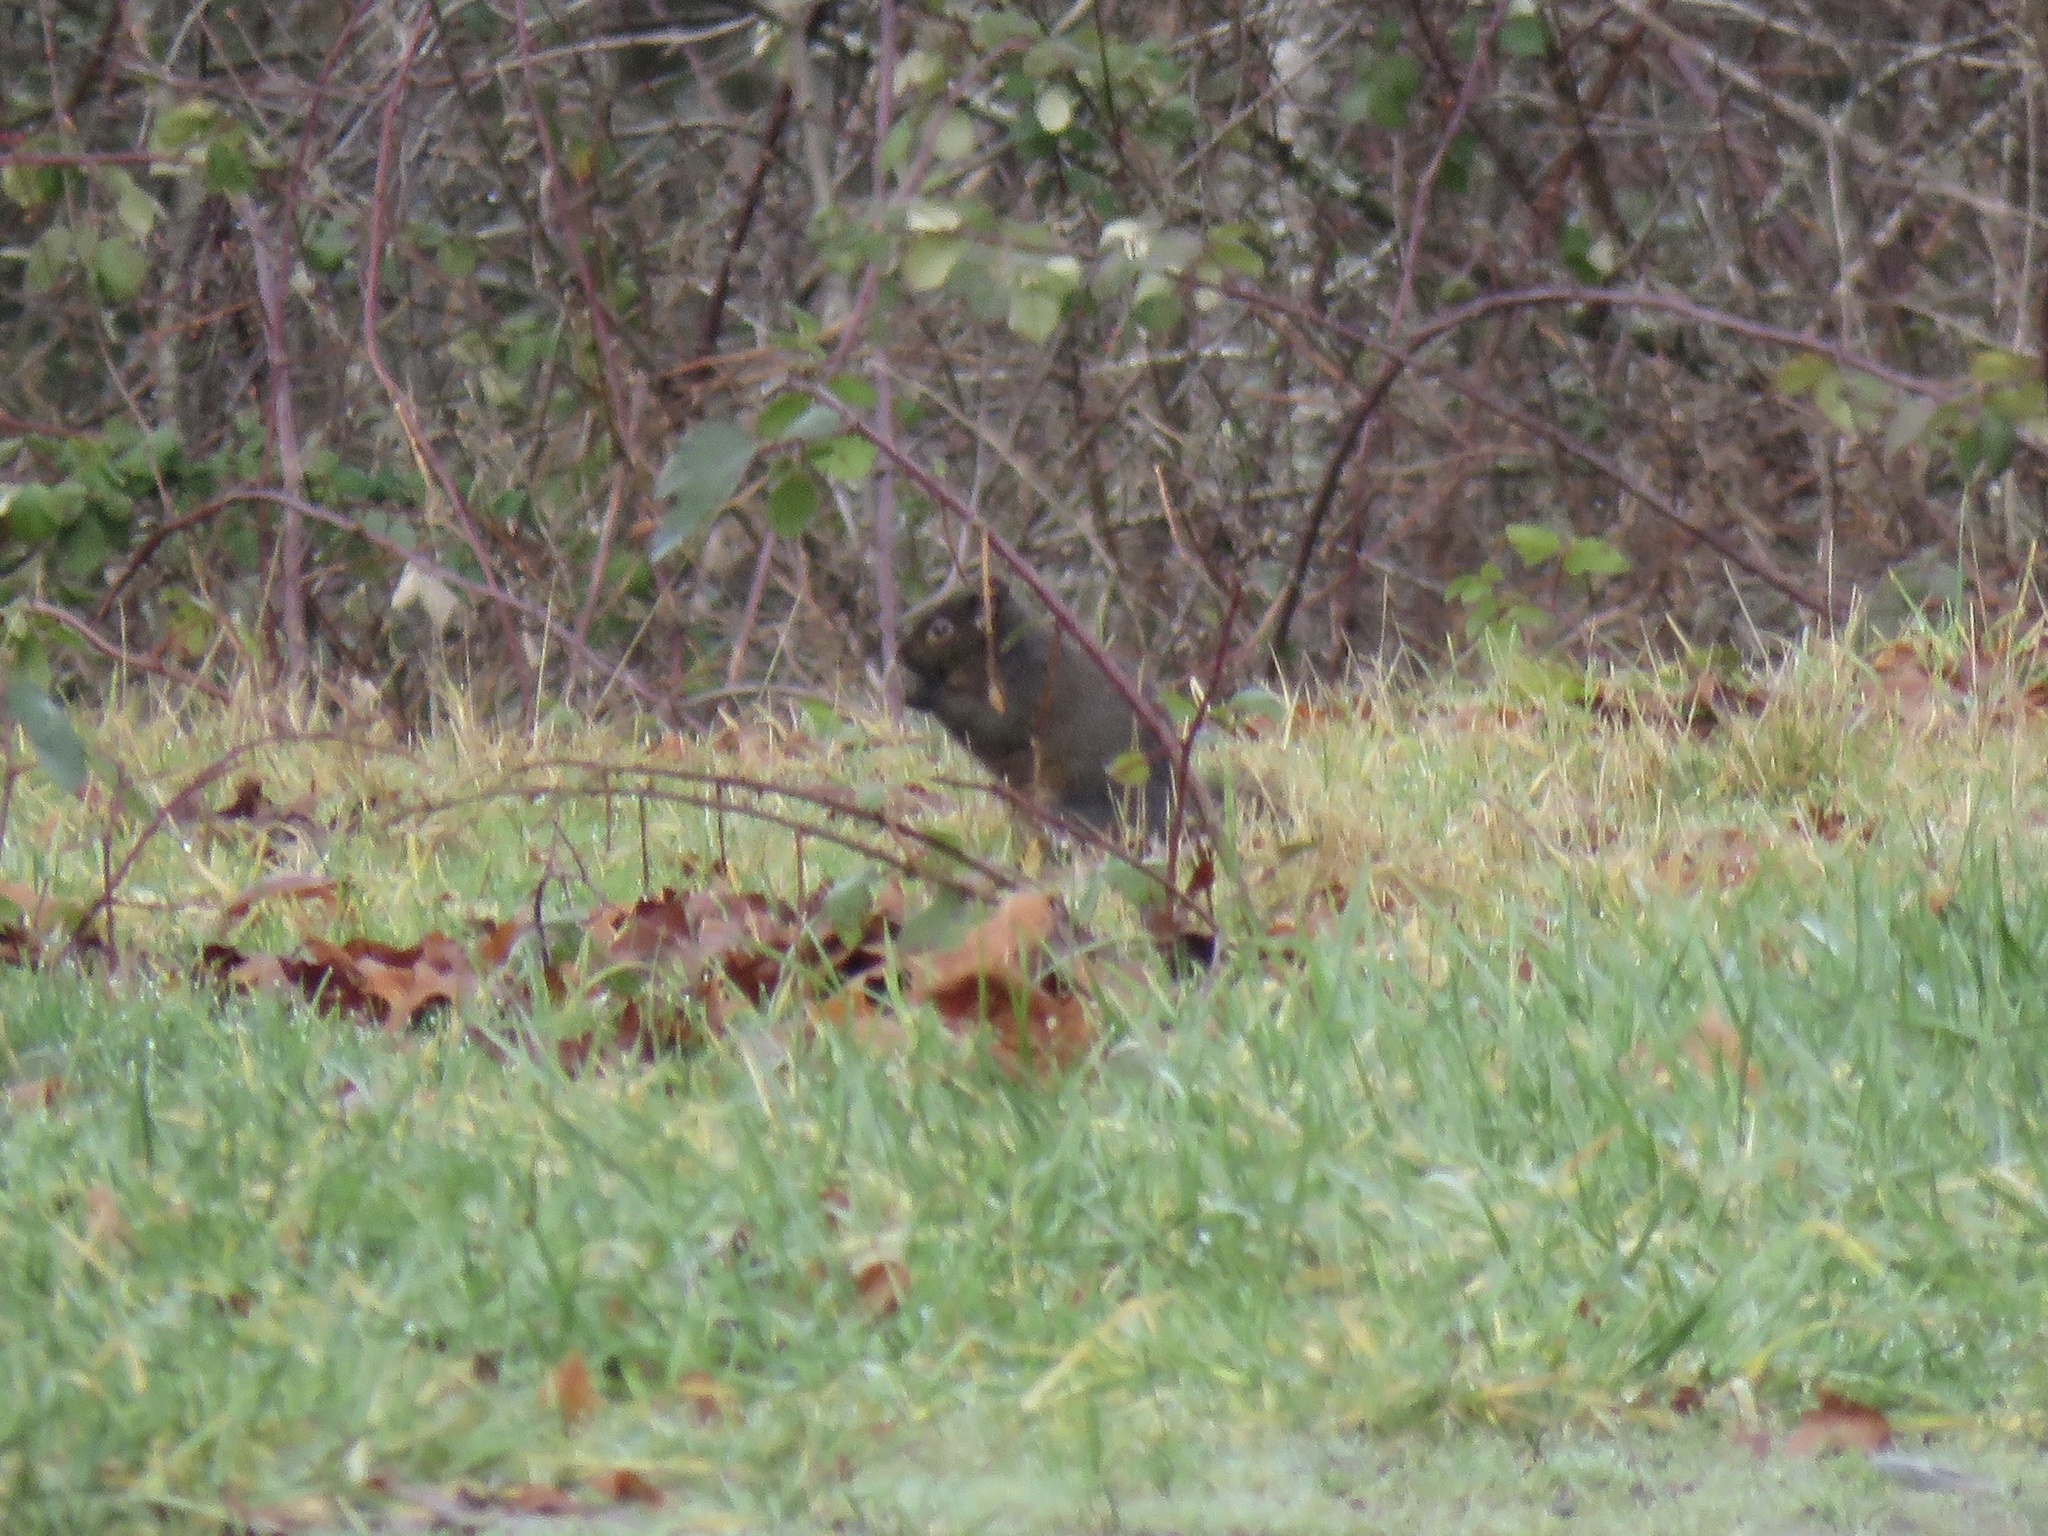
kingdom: Animalia
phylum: Chordata
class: Mammalia
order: Rodentia
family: Sciuridae
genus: Sciurus
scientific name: Sciurus carolinensis
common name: Eastern gray squirrel
